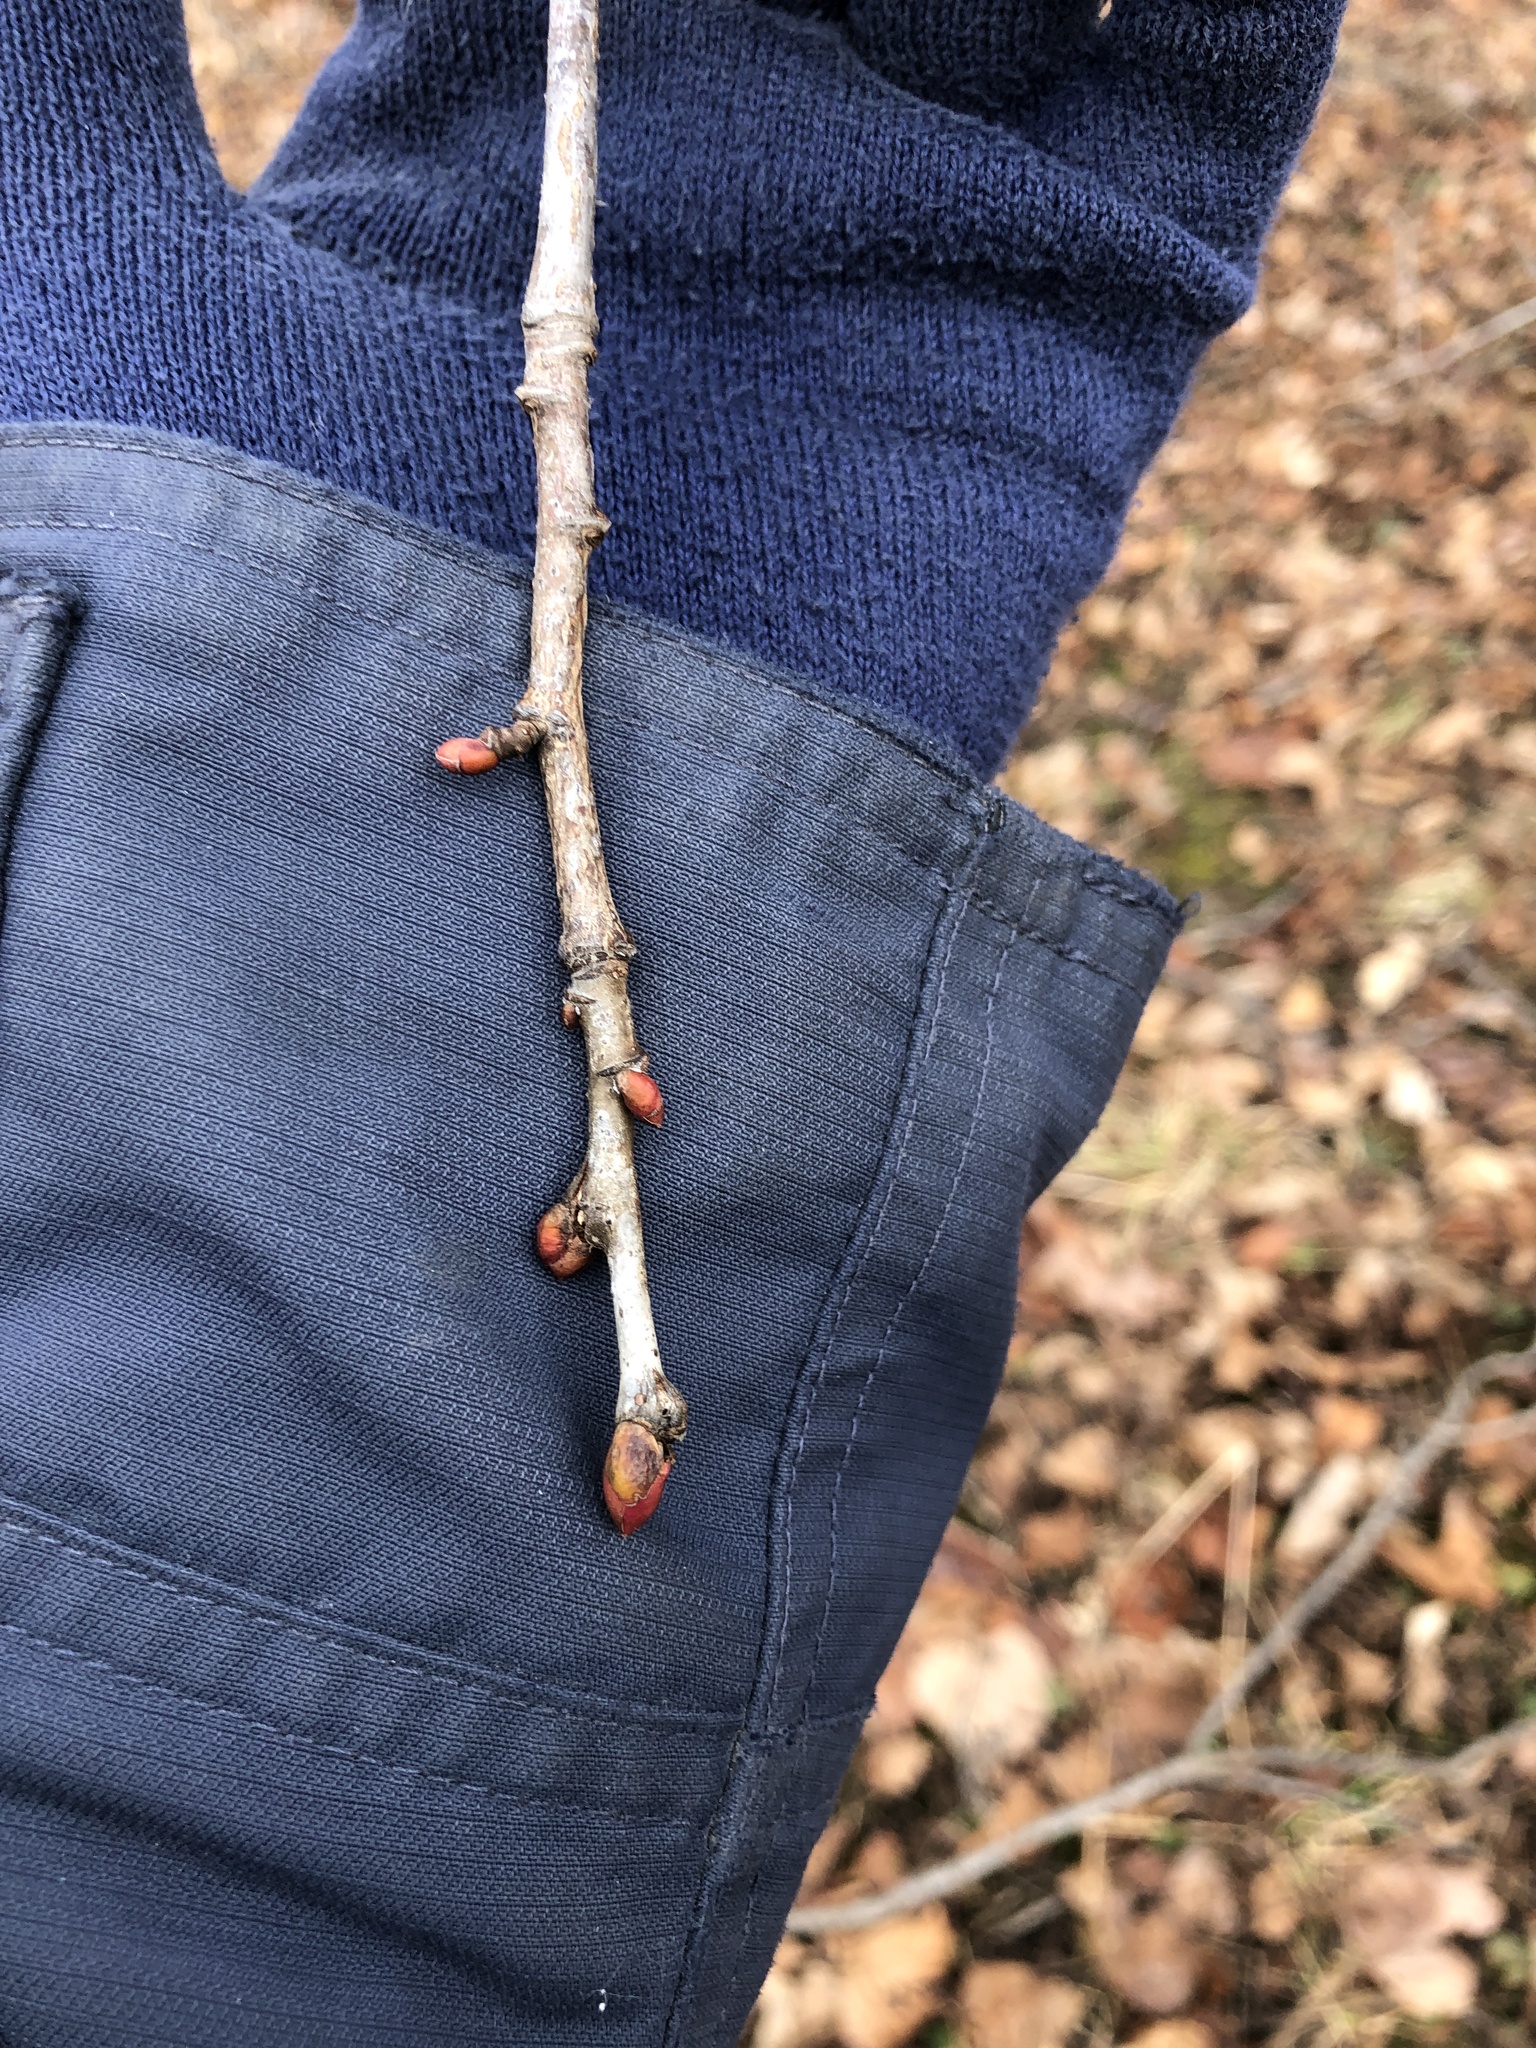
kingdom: Plantae
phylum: Tracheophyta
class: Magnoliopsida
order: Malvales
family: Malvaceae
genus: Tilia
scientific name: Tilia americana
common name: Basswood
